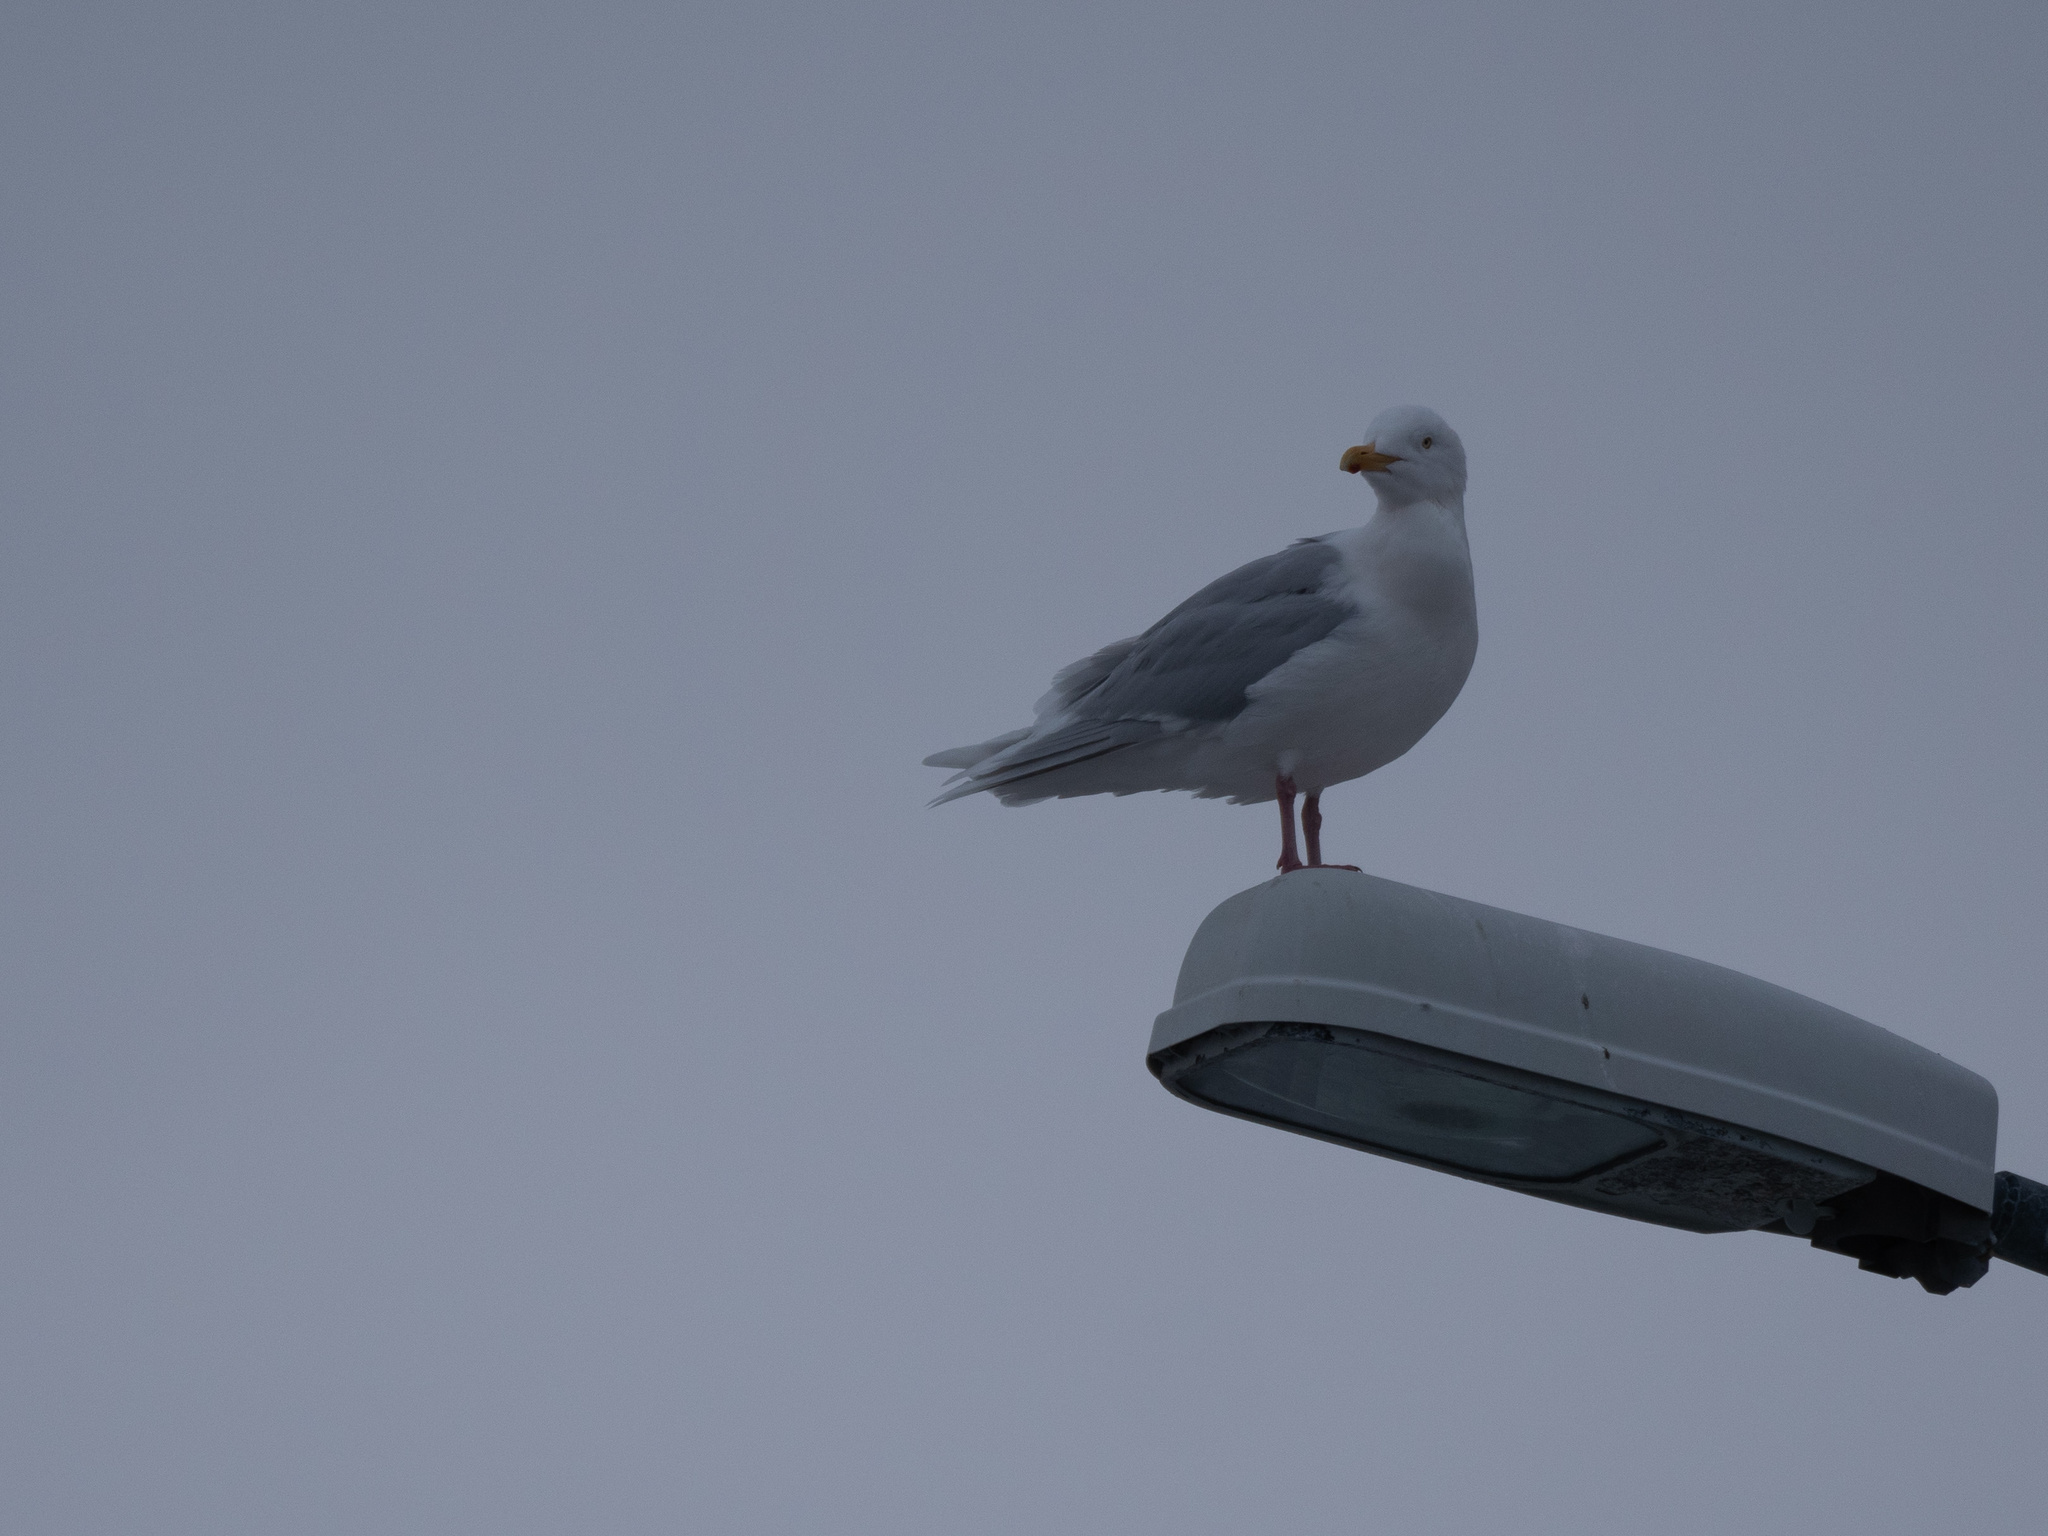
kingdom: Animalia
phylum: Chordata
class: Aves
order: Charadriiformes
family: Laridae
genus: Larus
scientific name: Larus hyperboreus
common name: Glaucous gull
